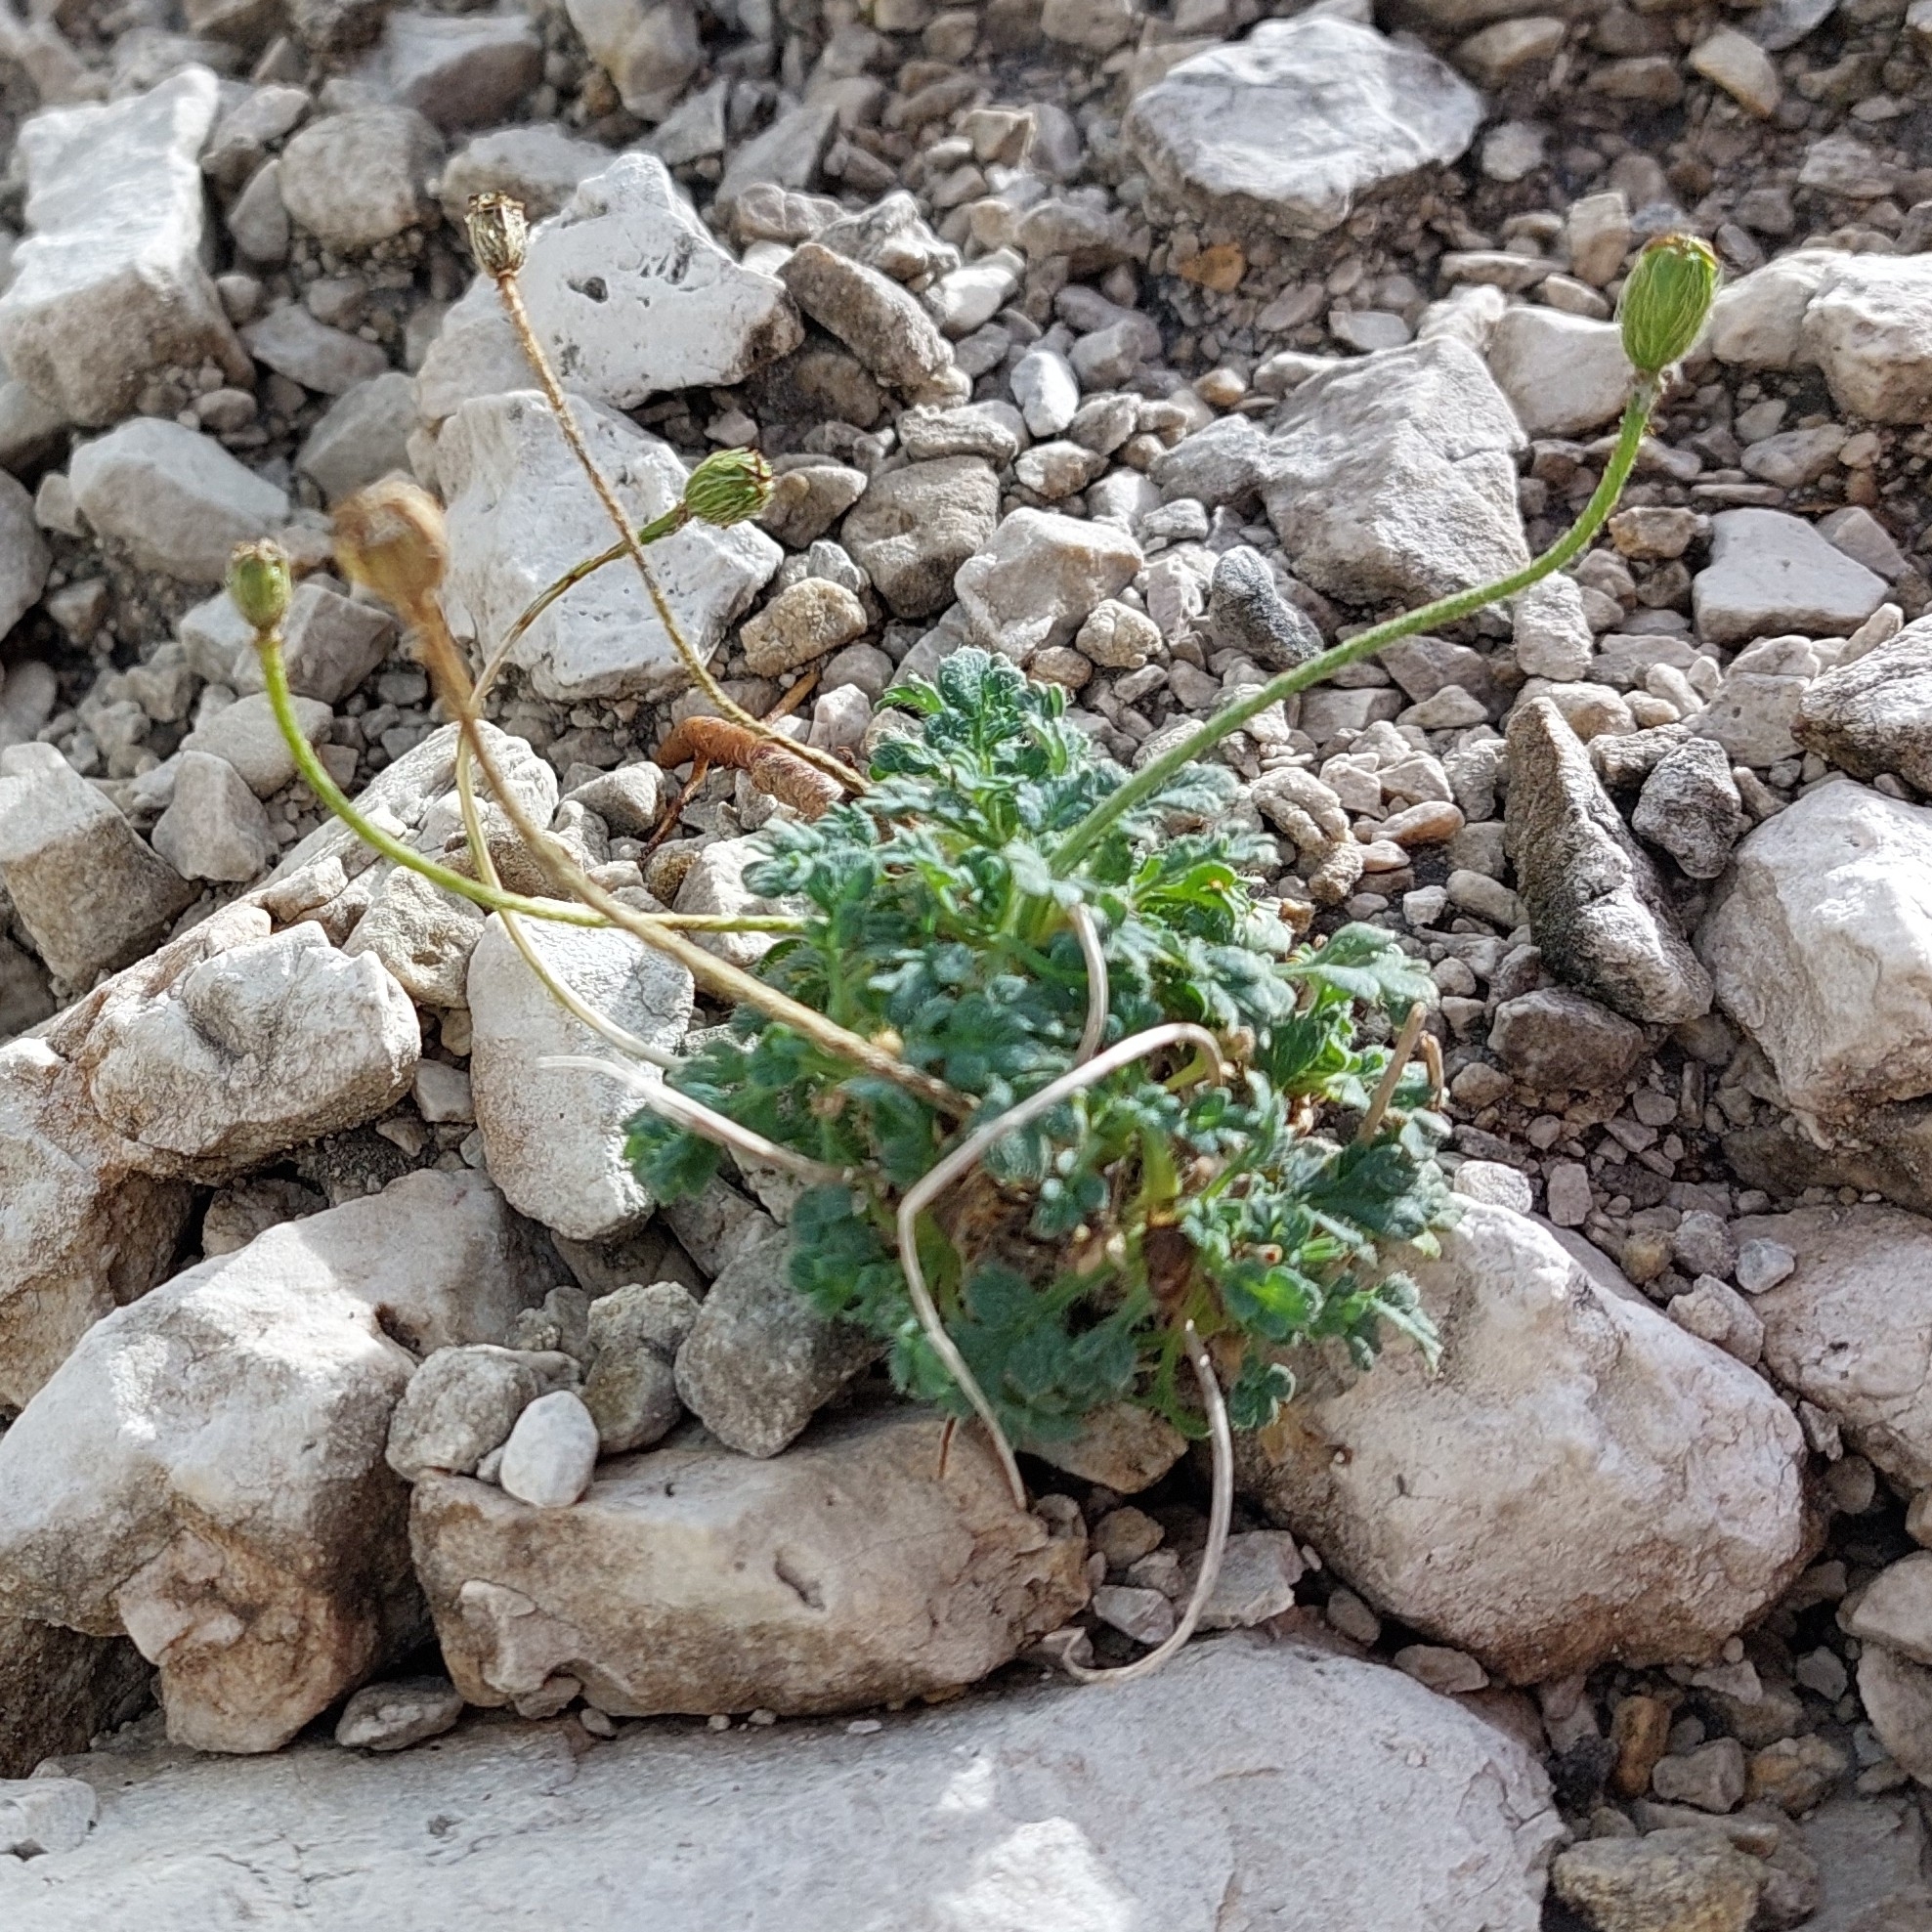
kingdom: Plantae
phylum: Tracheophyta
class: Magnoliopsida
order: Ranunculales
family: Papaveraceae
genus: Papaver
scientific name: Papaver alpinum
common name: Austrian poppy
